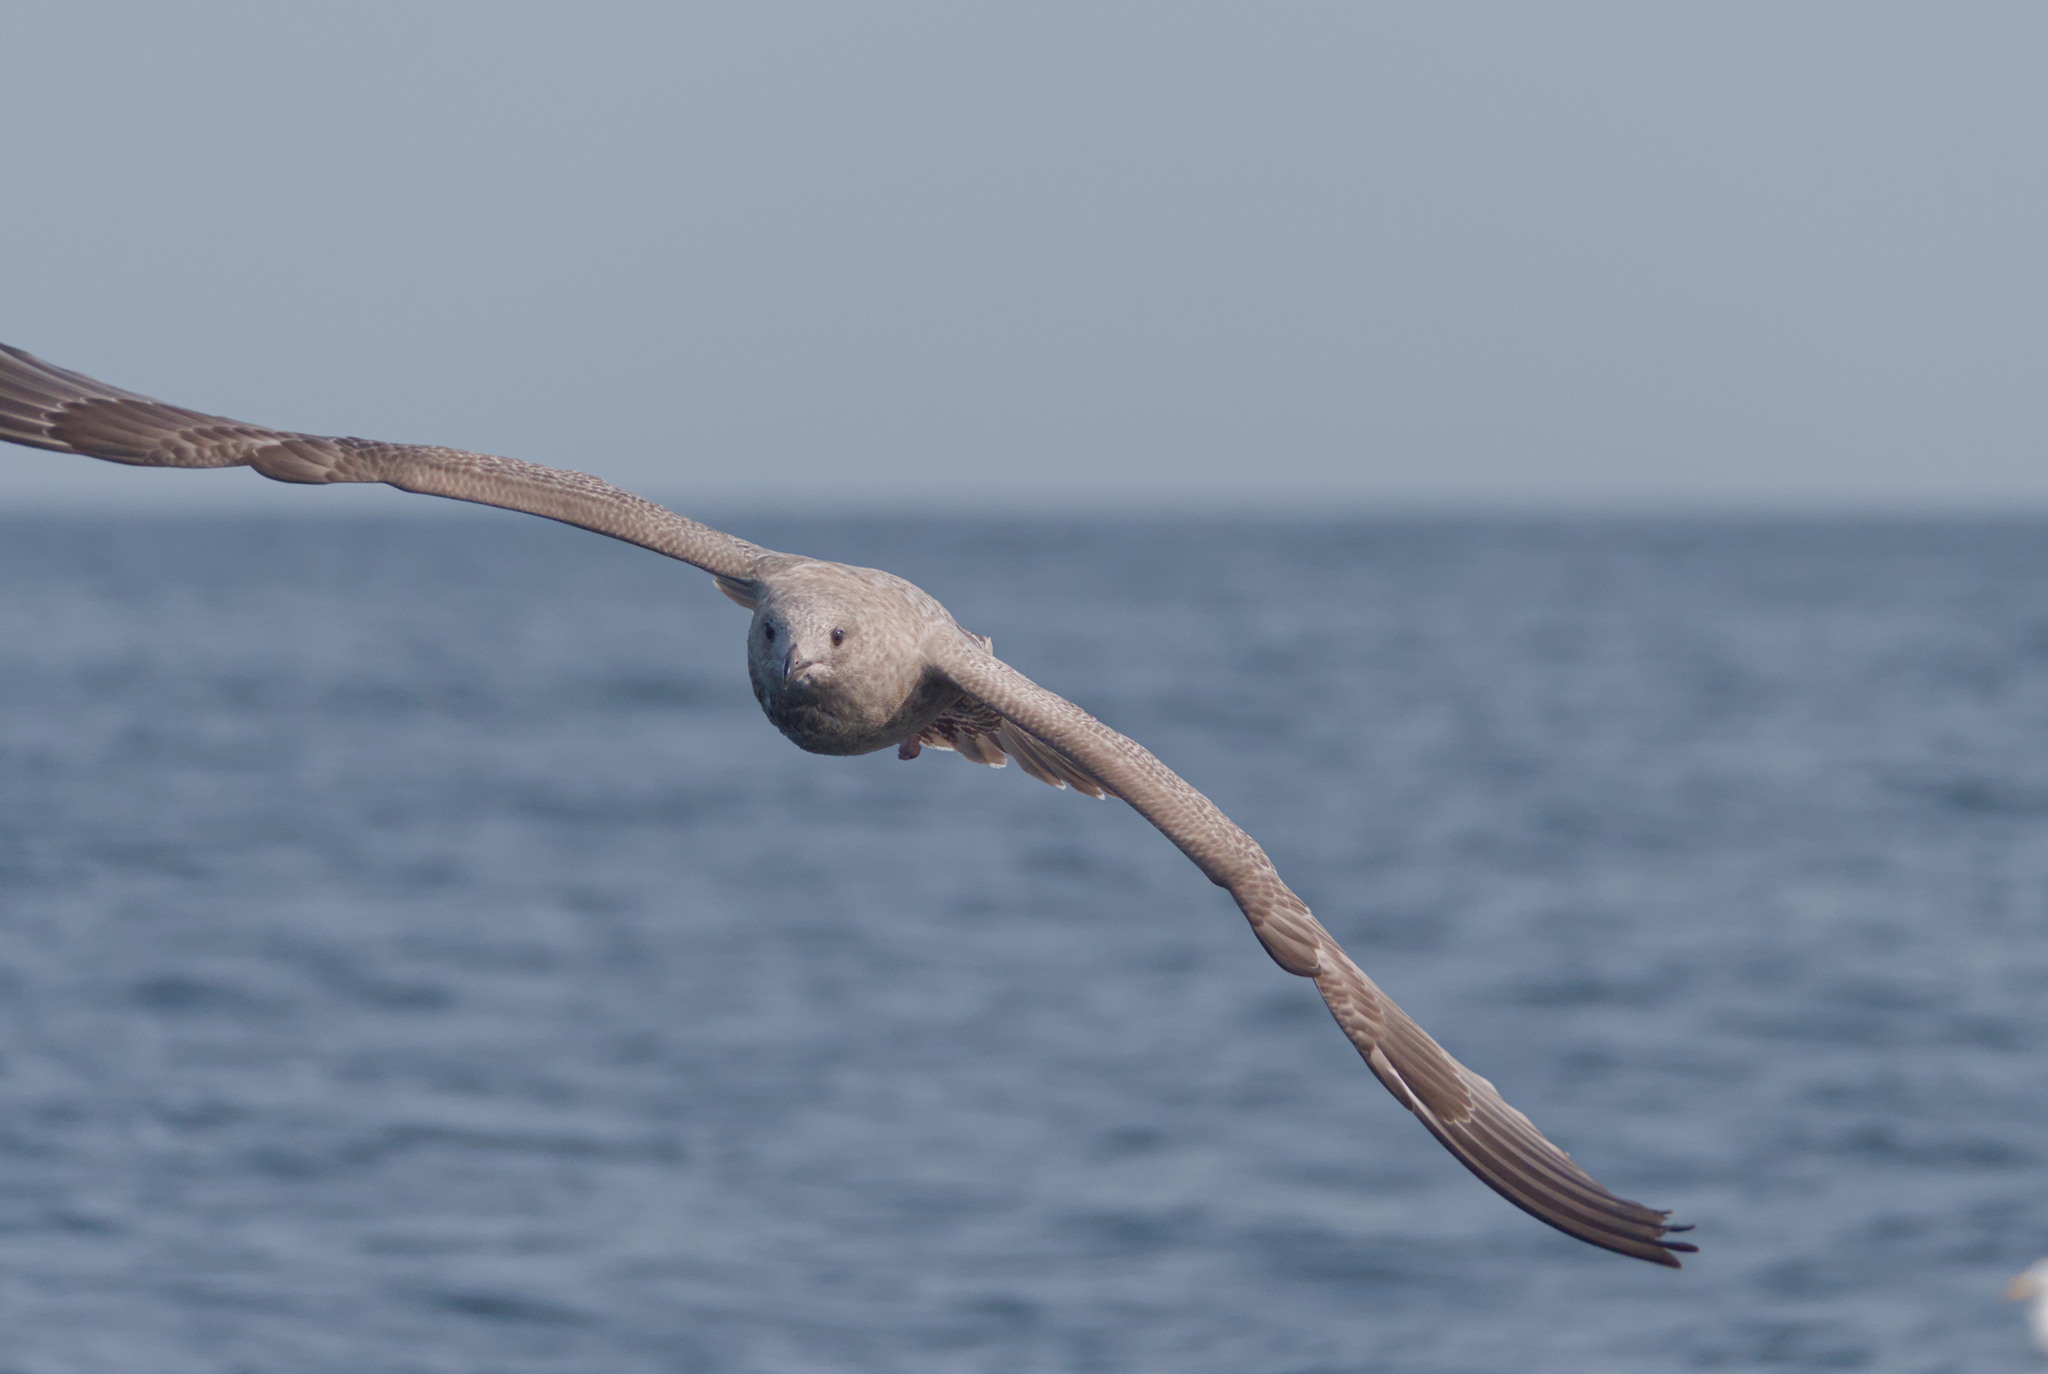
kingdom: Animalia
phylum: Chordata
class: Aves
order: Charadriiformes
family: Laridae
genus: Larus
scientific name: Larus argentatus
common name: Herring gull
